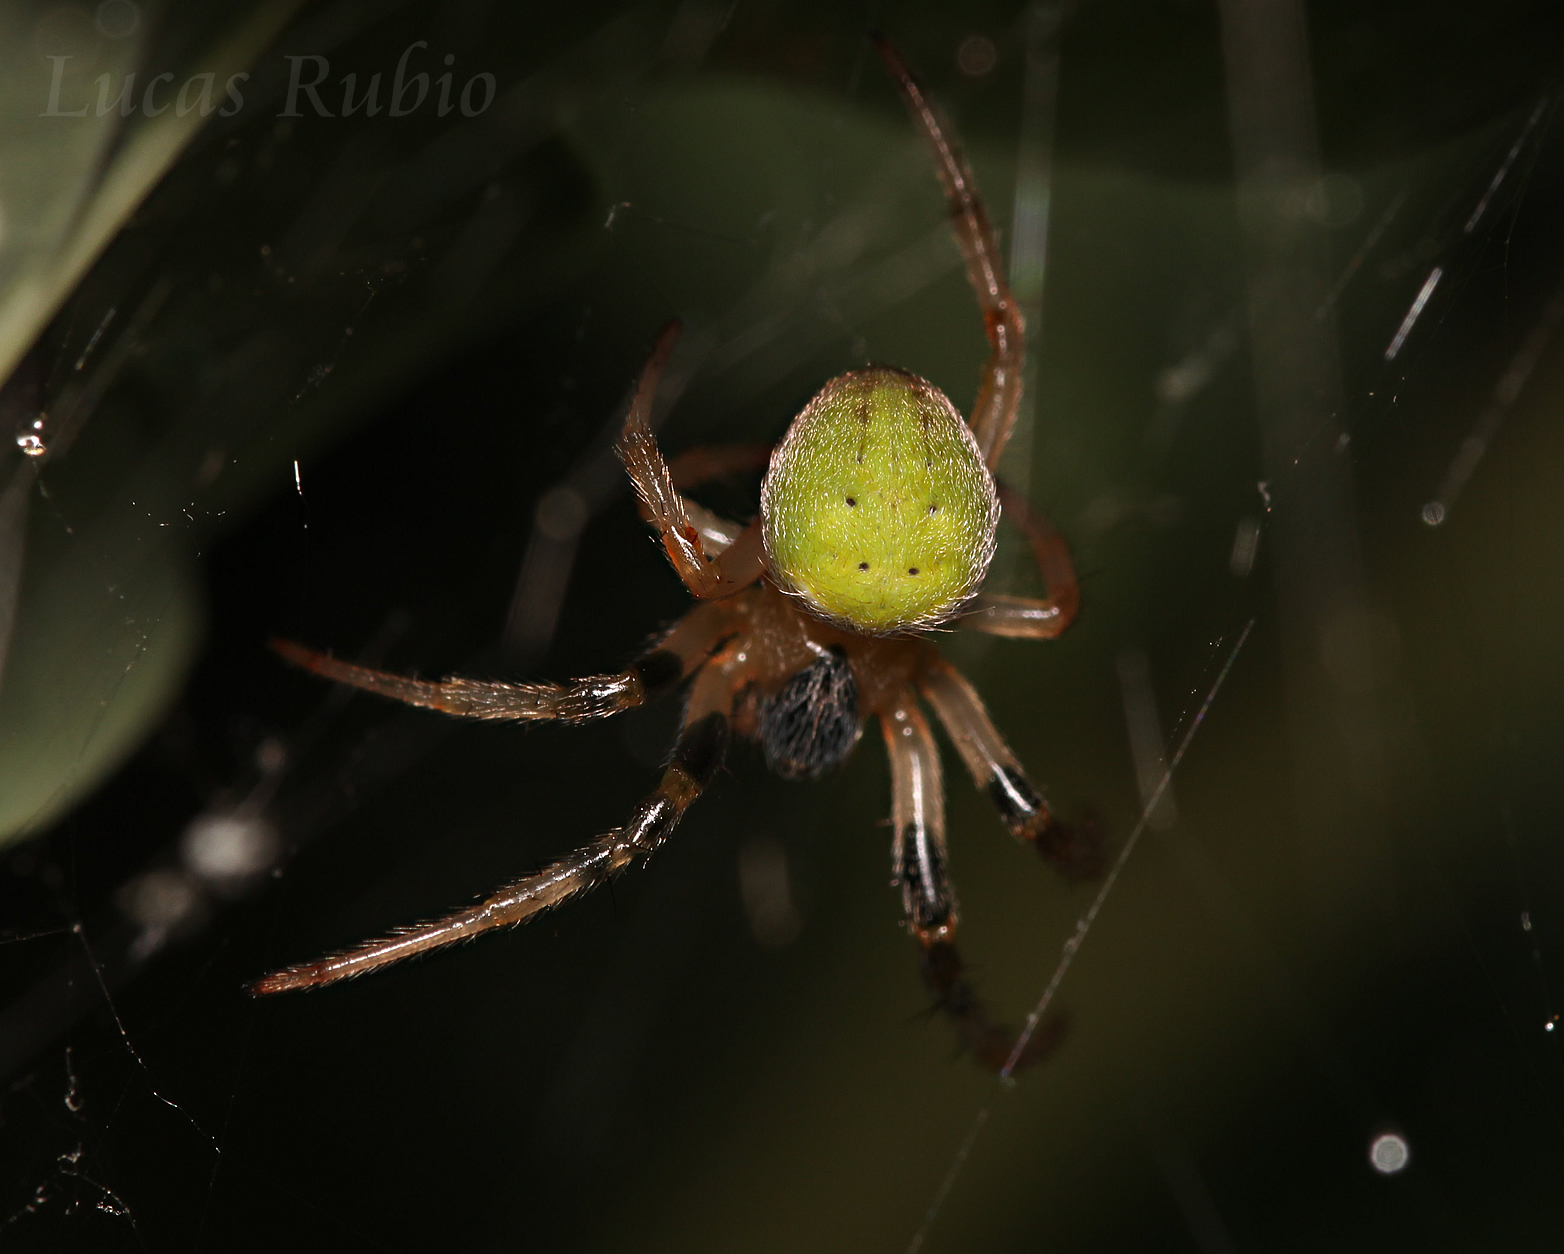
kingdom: Animalia
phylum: Arthropoda
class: Arachnida
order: Araneae
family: Araneidae
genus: Araneus
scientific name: Araneus lathyrinus
